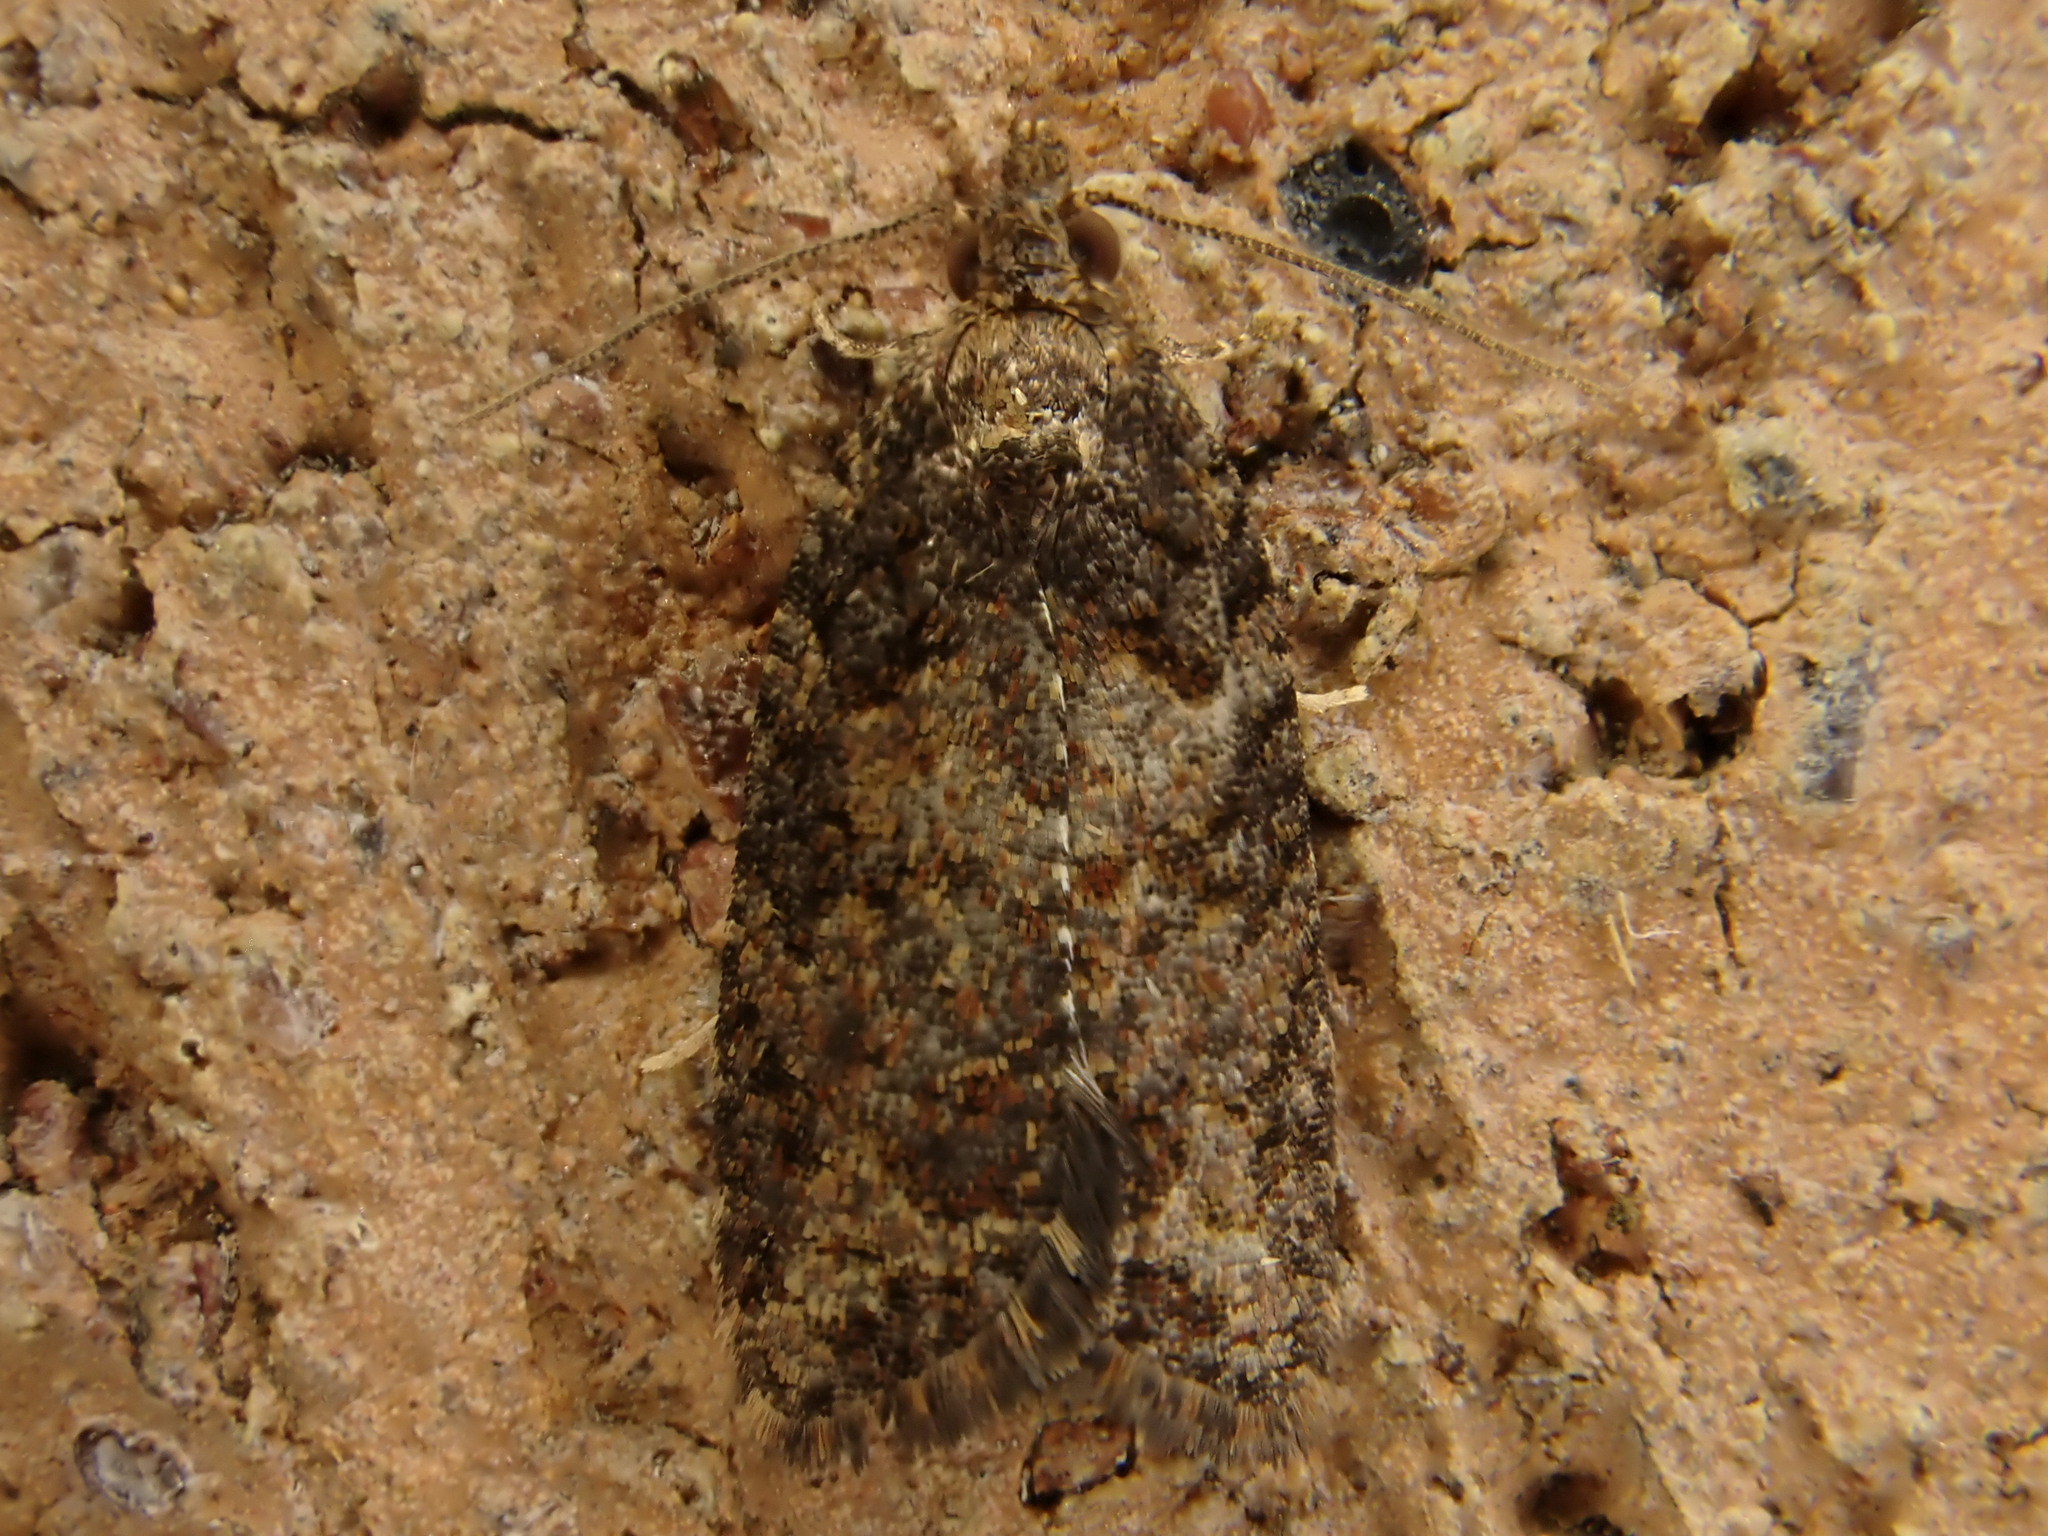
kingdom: Animalia
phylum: Arthropoda
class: Insecta
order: Lepidoptera
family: Tortricidae
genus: Capua
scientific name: Capua intractana
